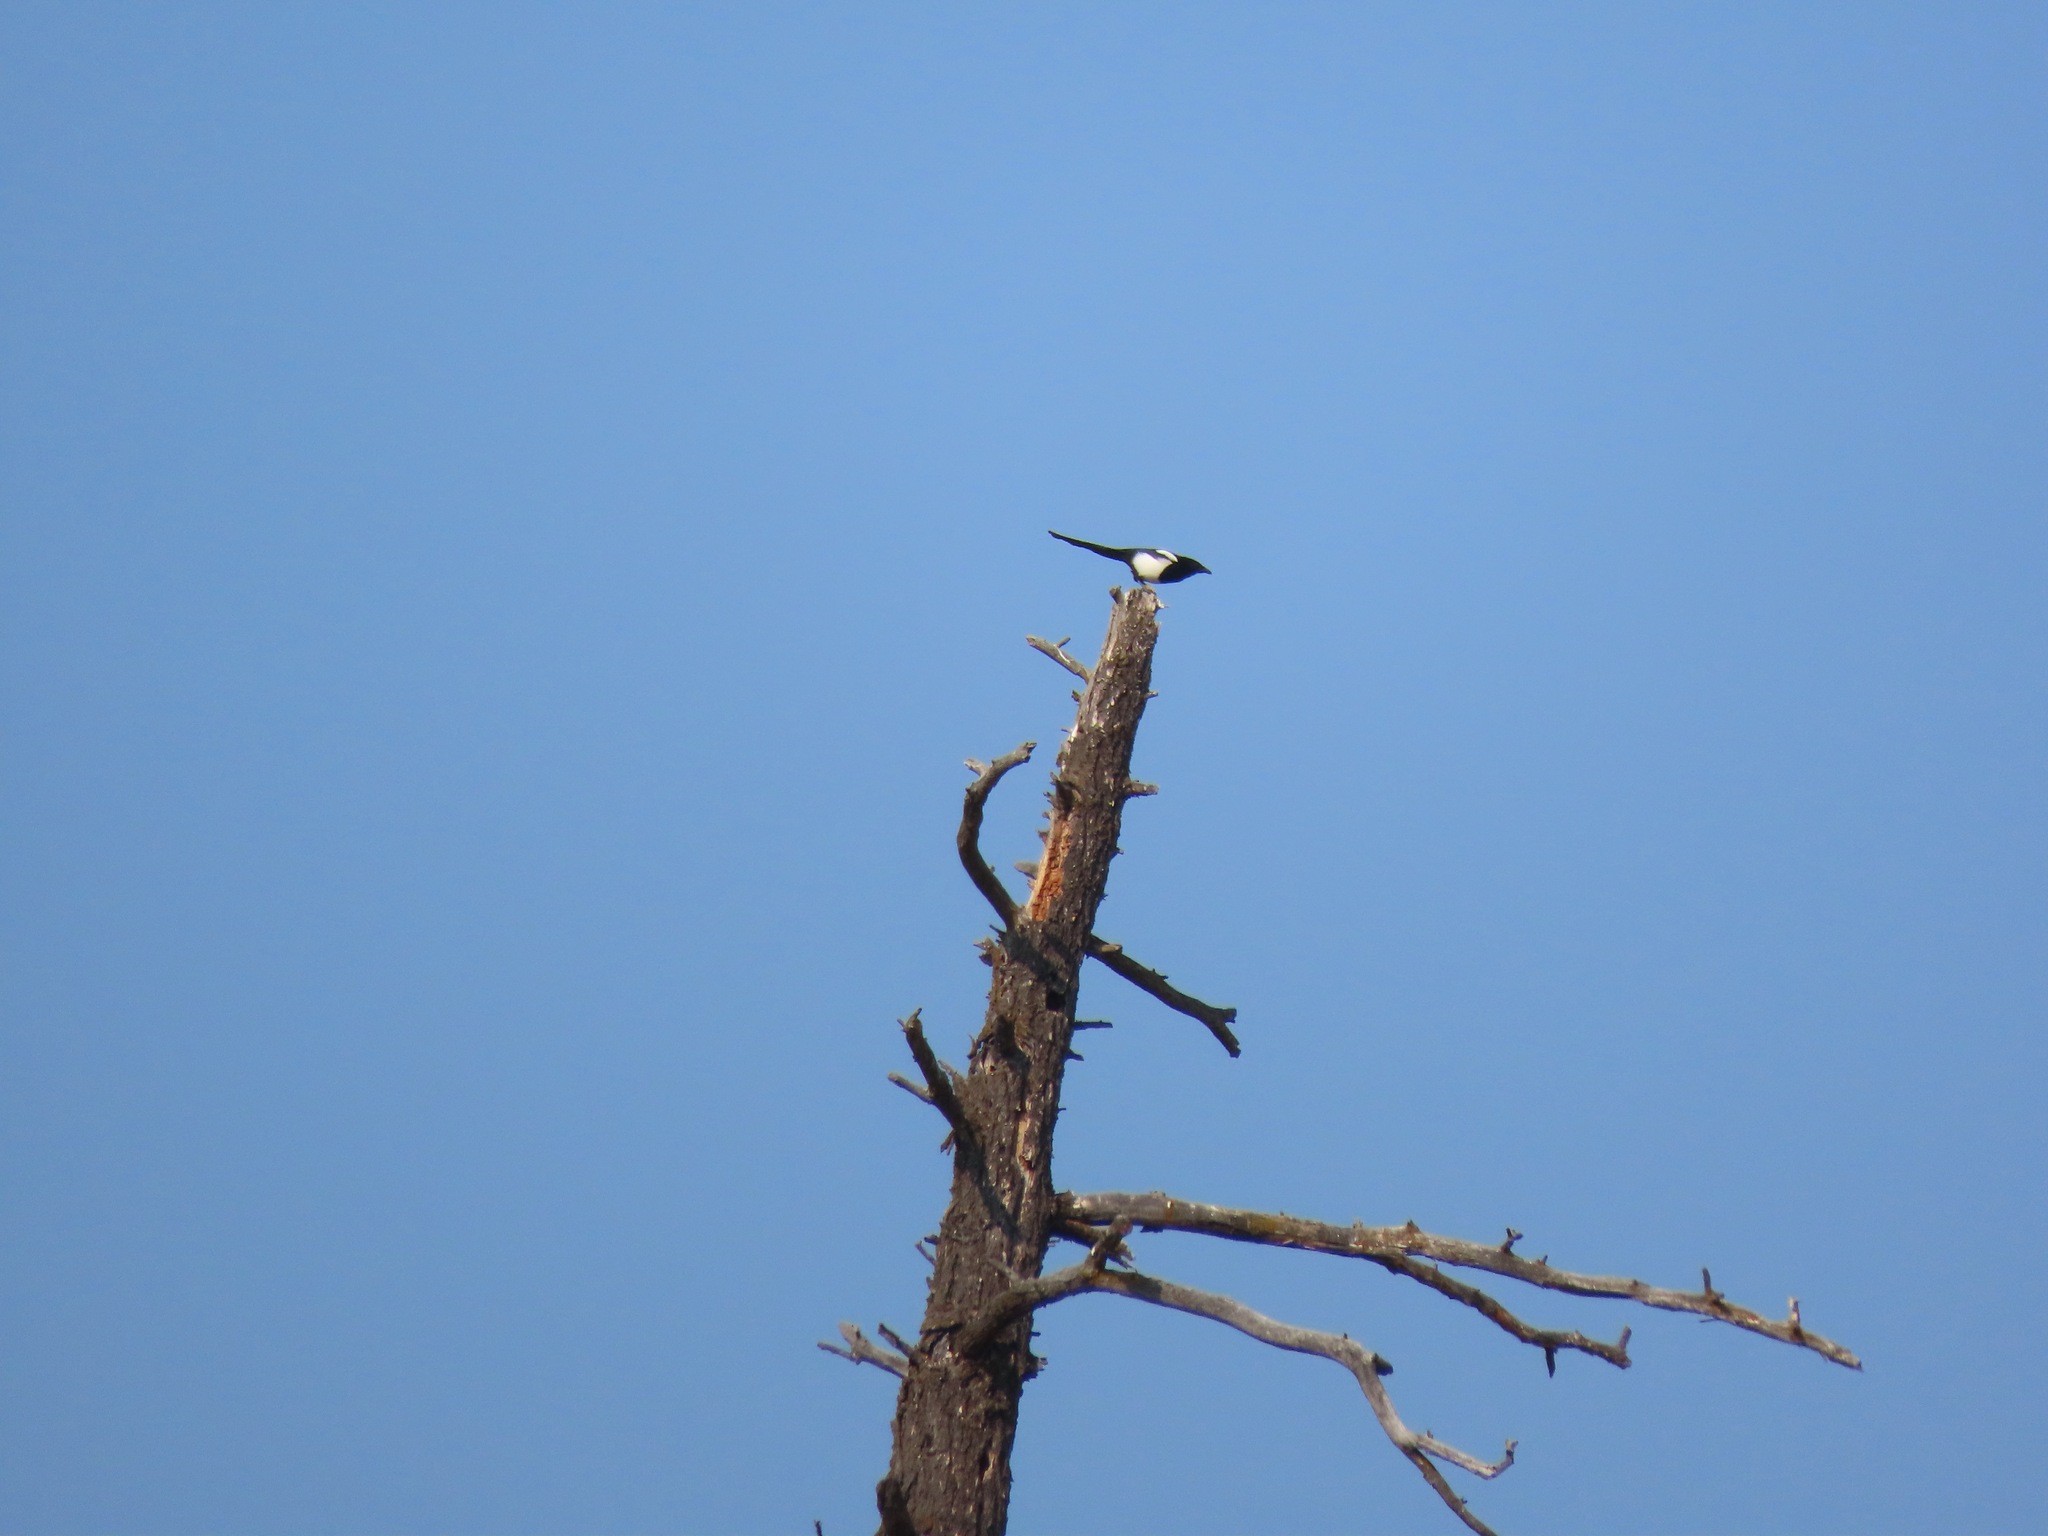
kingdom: Animalia
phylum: Chordata
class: Aves
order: Passeriformes
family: Corvidae
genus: Pica
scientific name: Pica hudsonia
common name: Black-billed magpie
